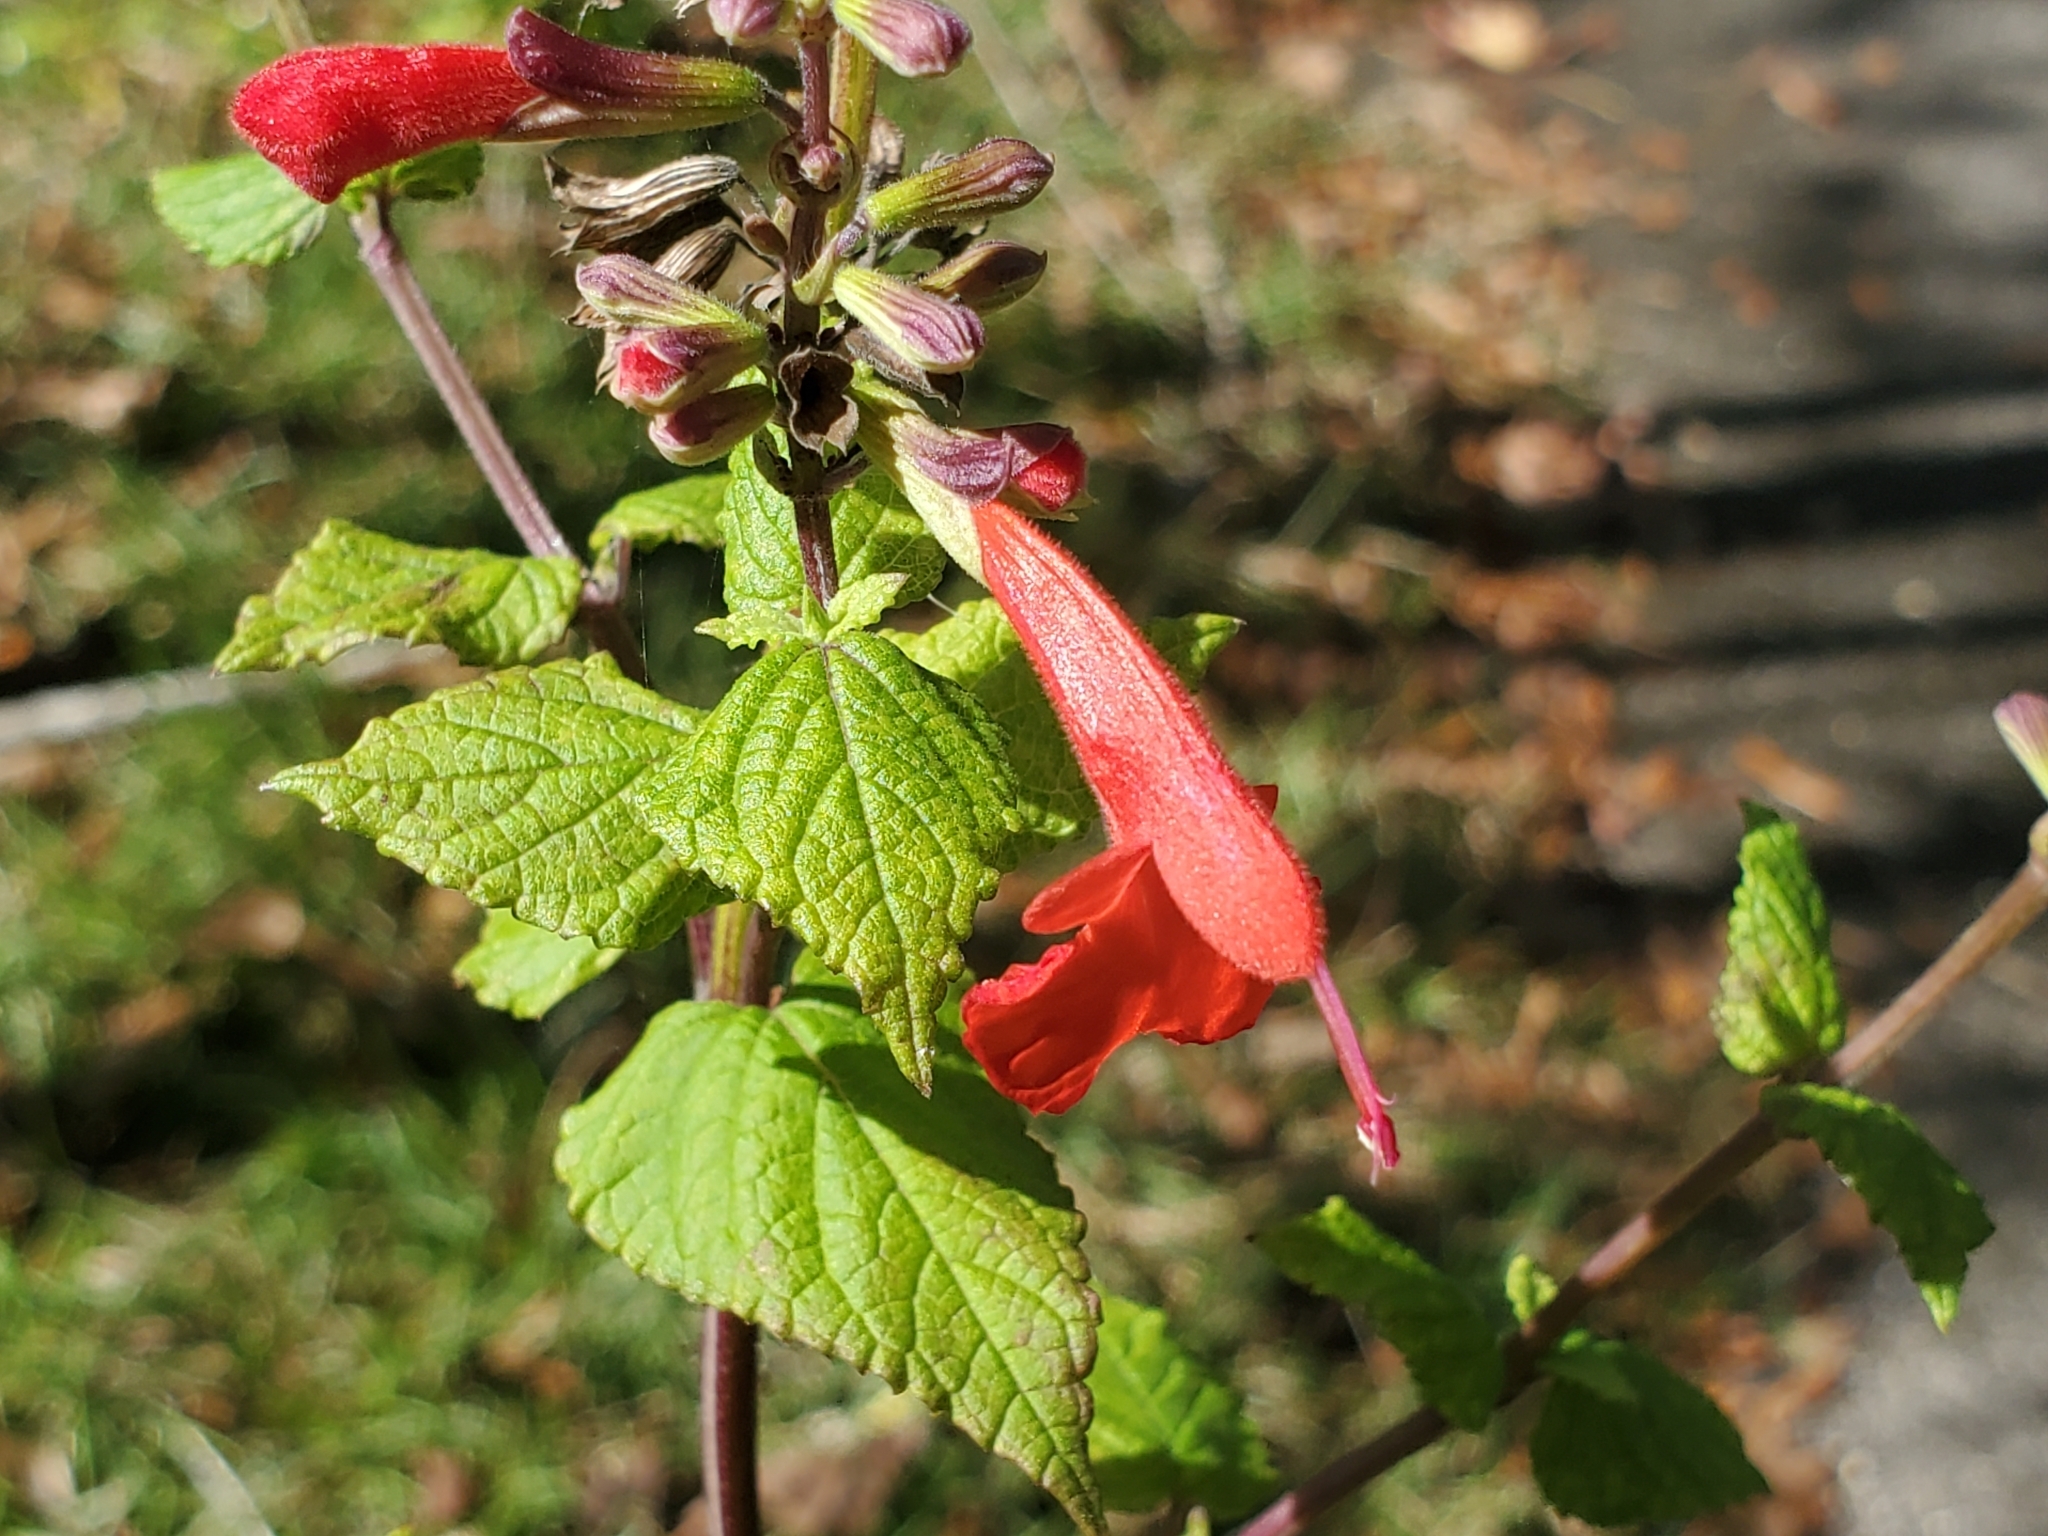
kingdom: Plantae
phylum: Tracheophyta
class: Magnoliopsida
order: Lamiales
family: Lamiaceae
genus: Salvia
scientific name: Salvia coccinea
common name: Blood sage
